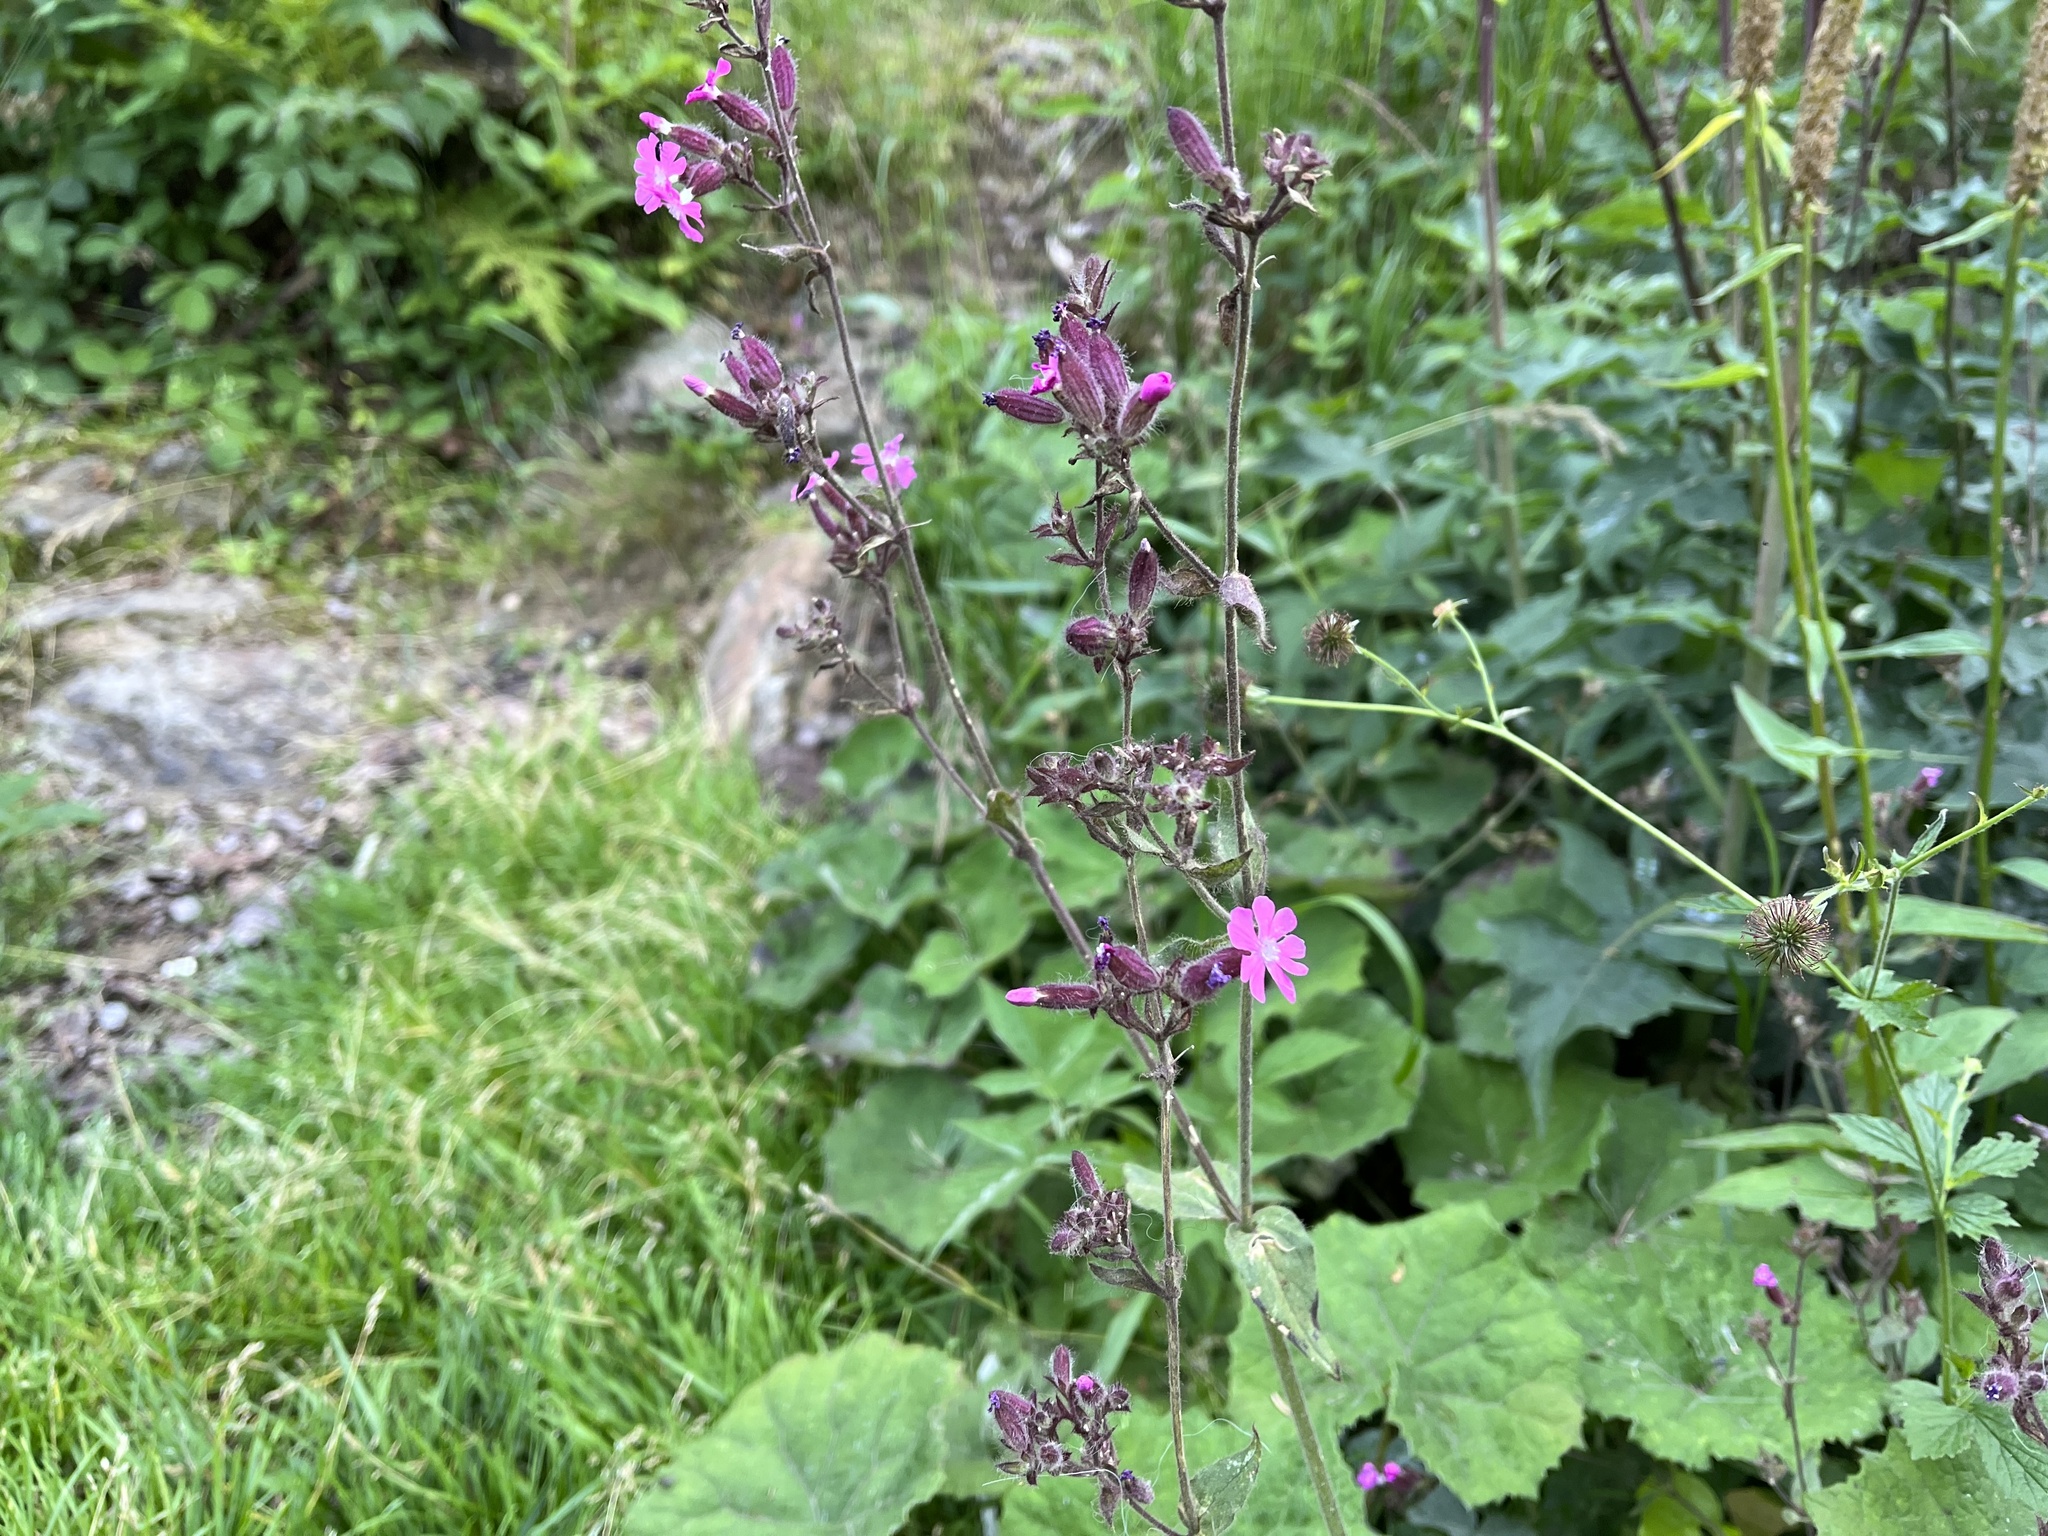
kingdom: Plantae
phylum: Tracheophyta
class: Magnoliopsida
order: Caryophyllales
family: Caryophyllaceae
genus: Silene
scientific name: Silene dioica
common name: Red campion
